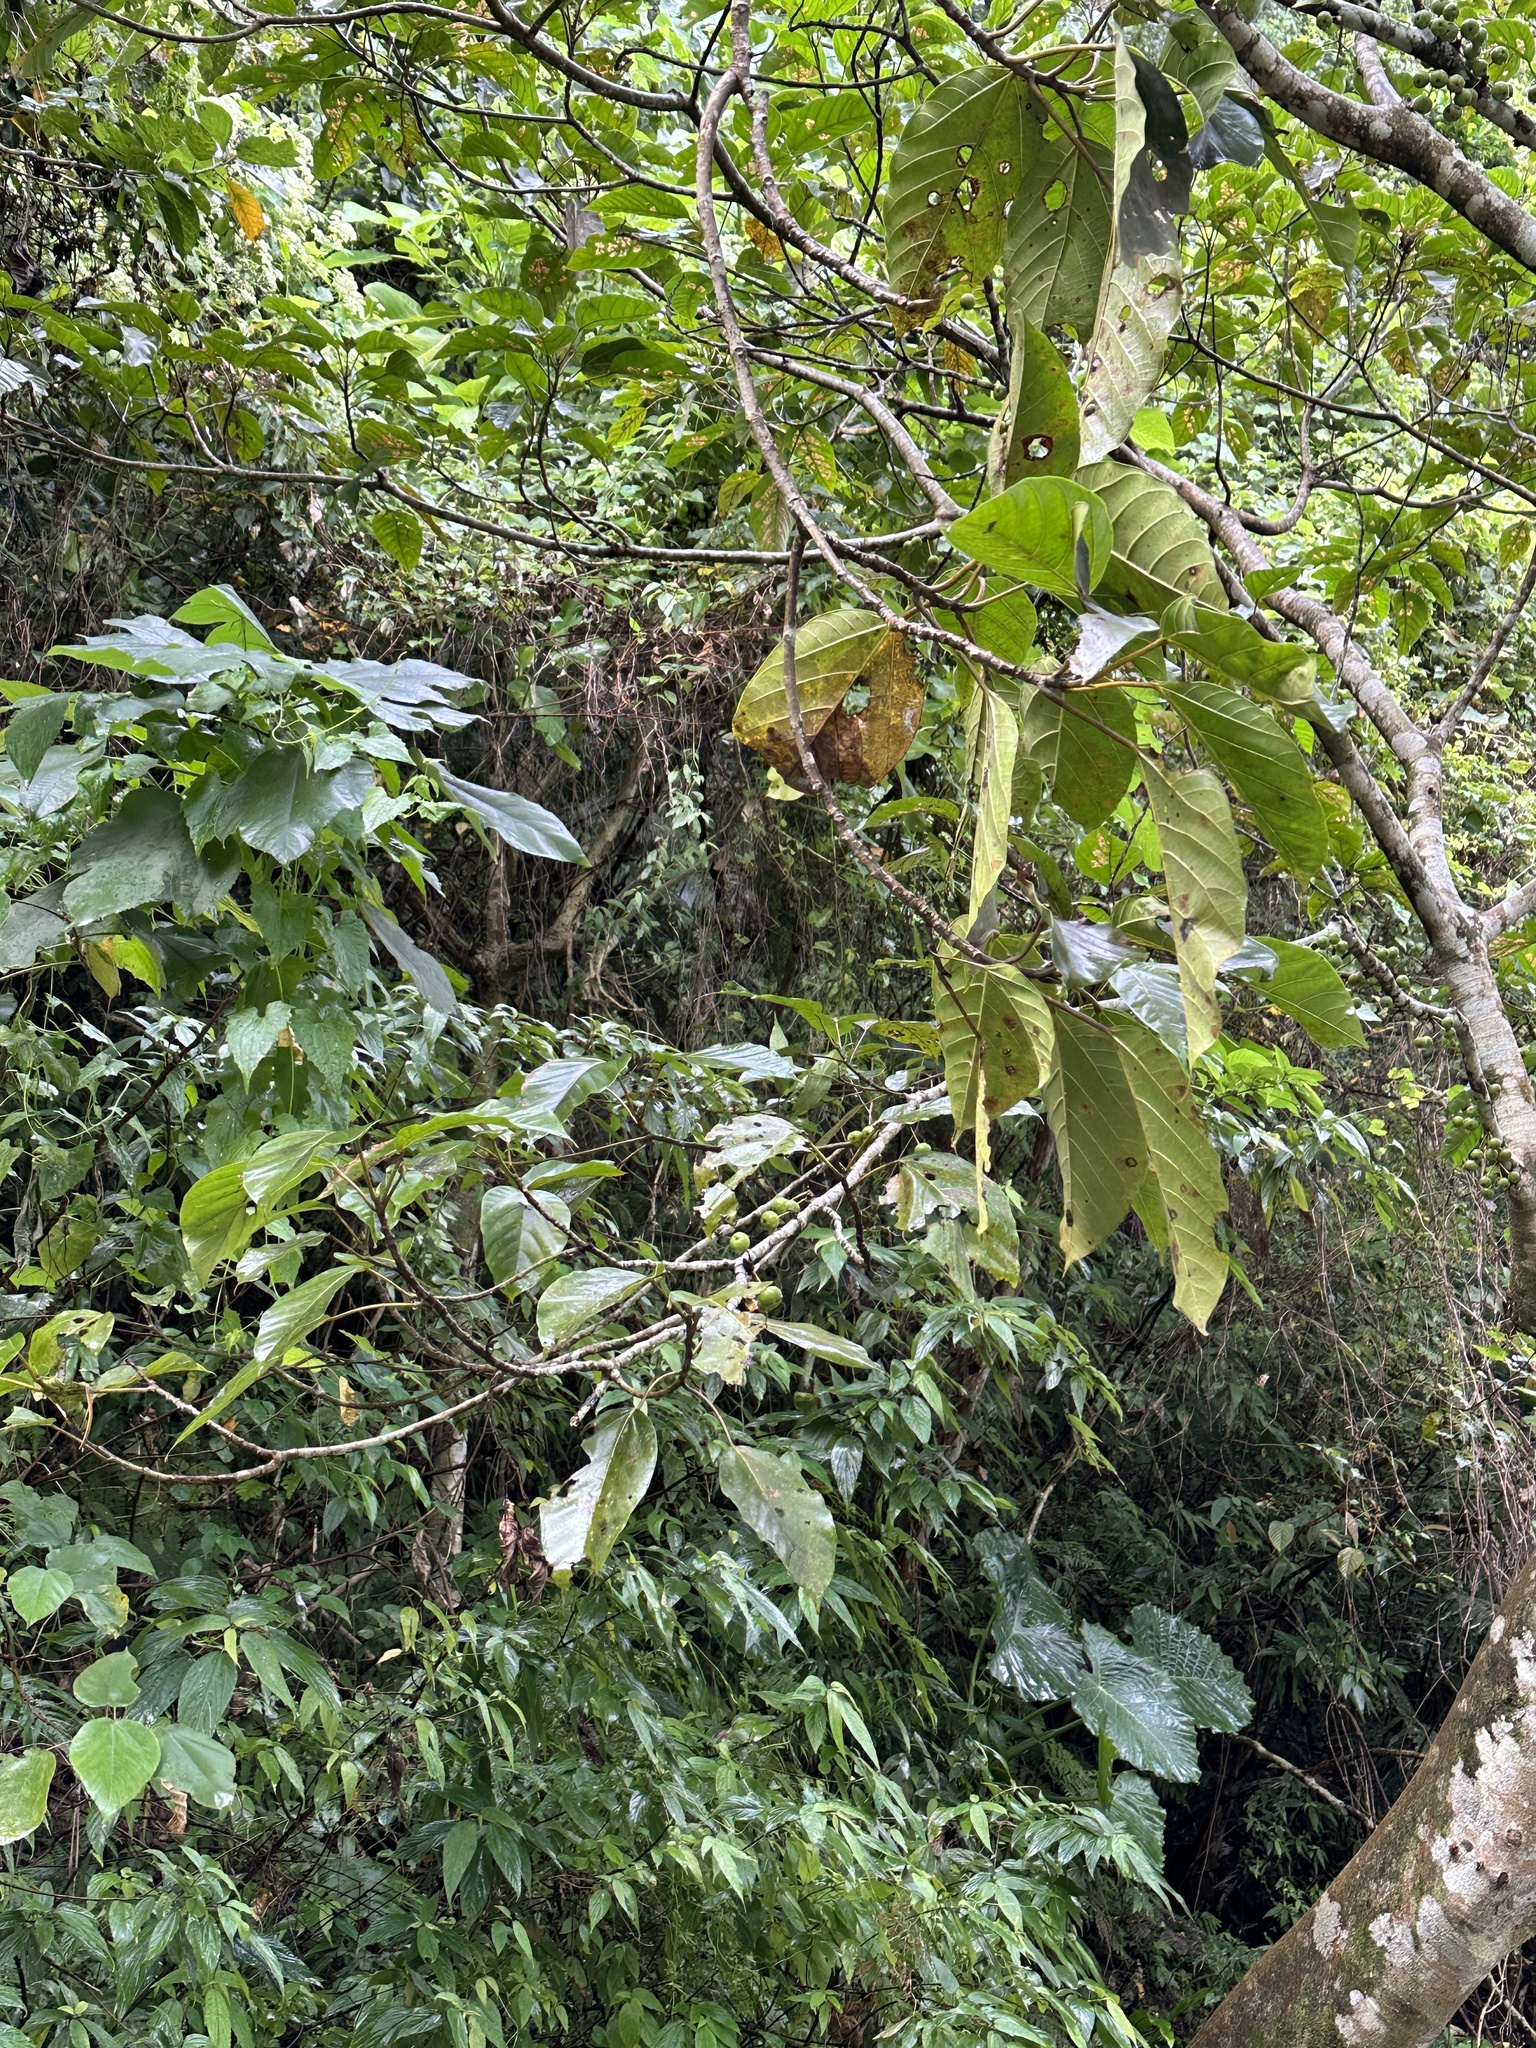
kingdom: Plantae
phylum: Tracheophyta
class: Magnoliopsida
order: Rosales
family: Moraceae
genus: Ficus
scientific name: Ficus variegata
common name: Variegated fig
